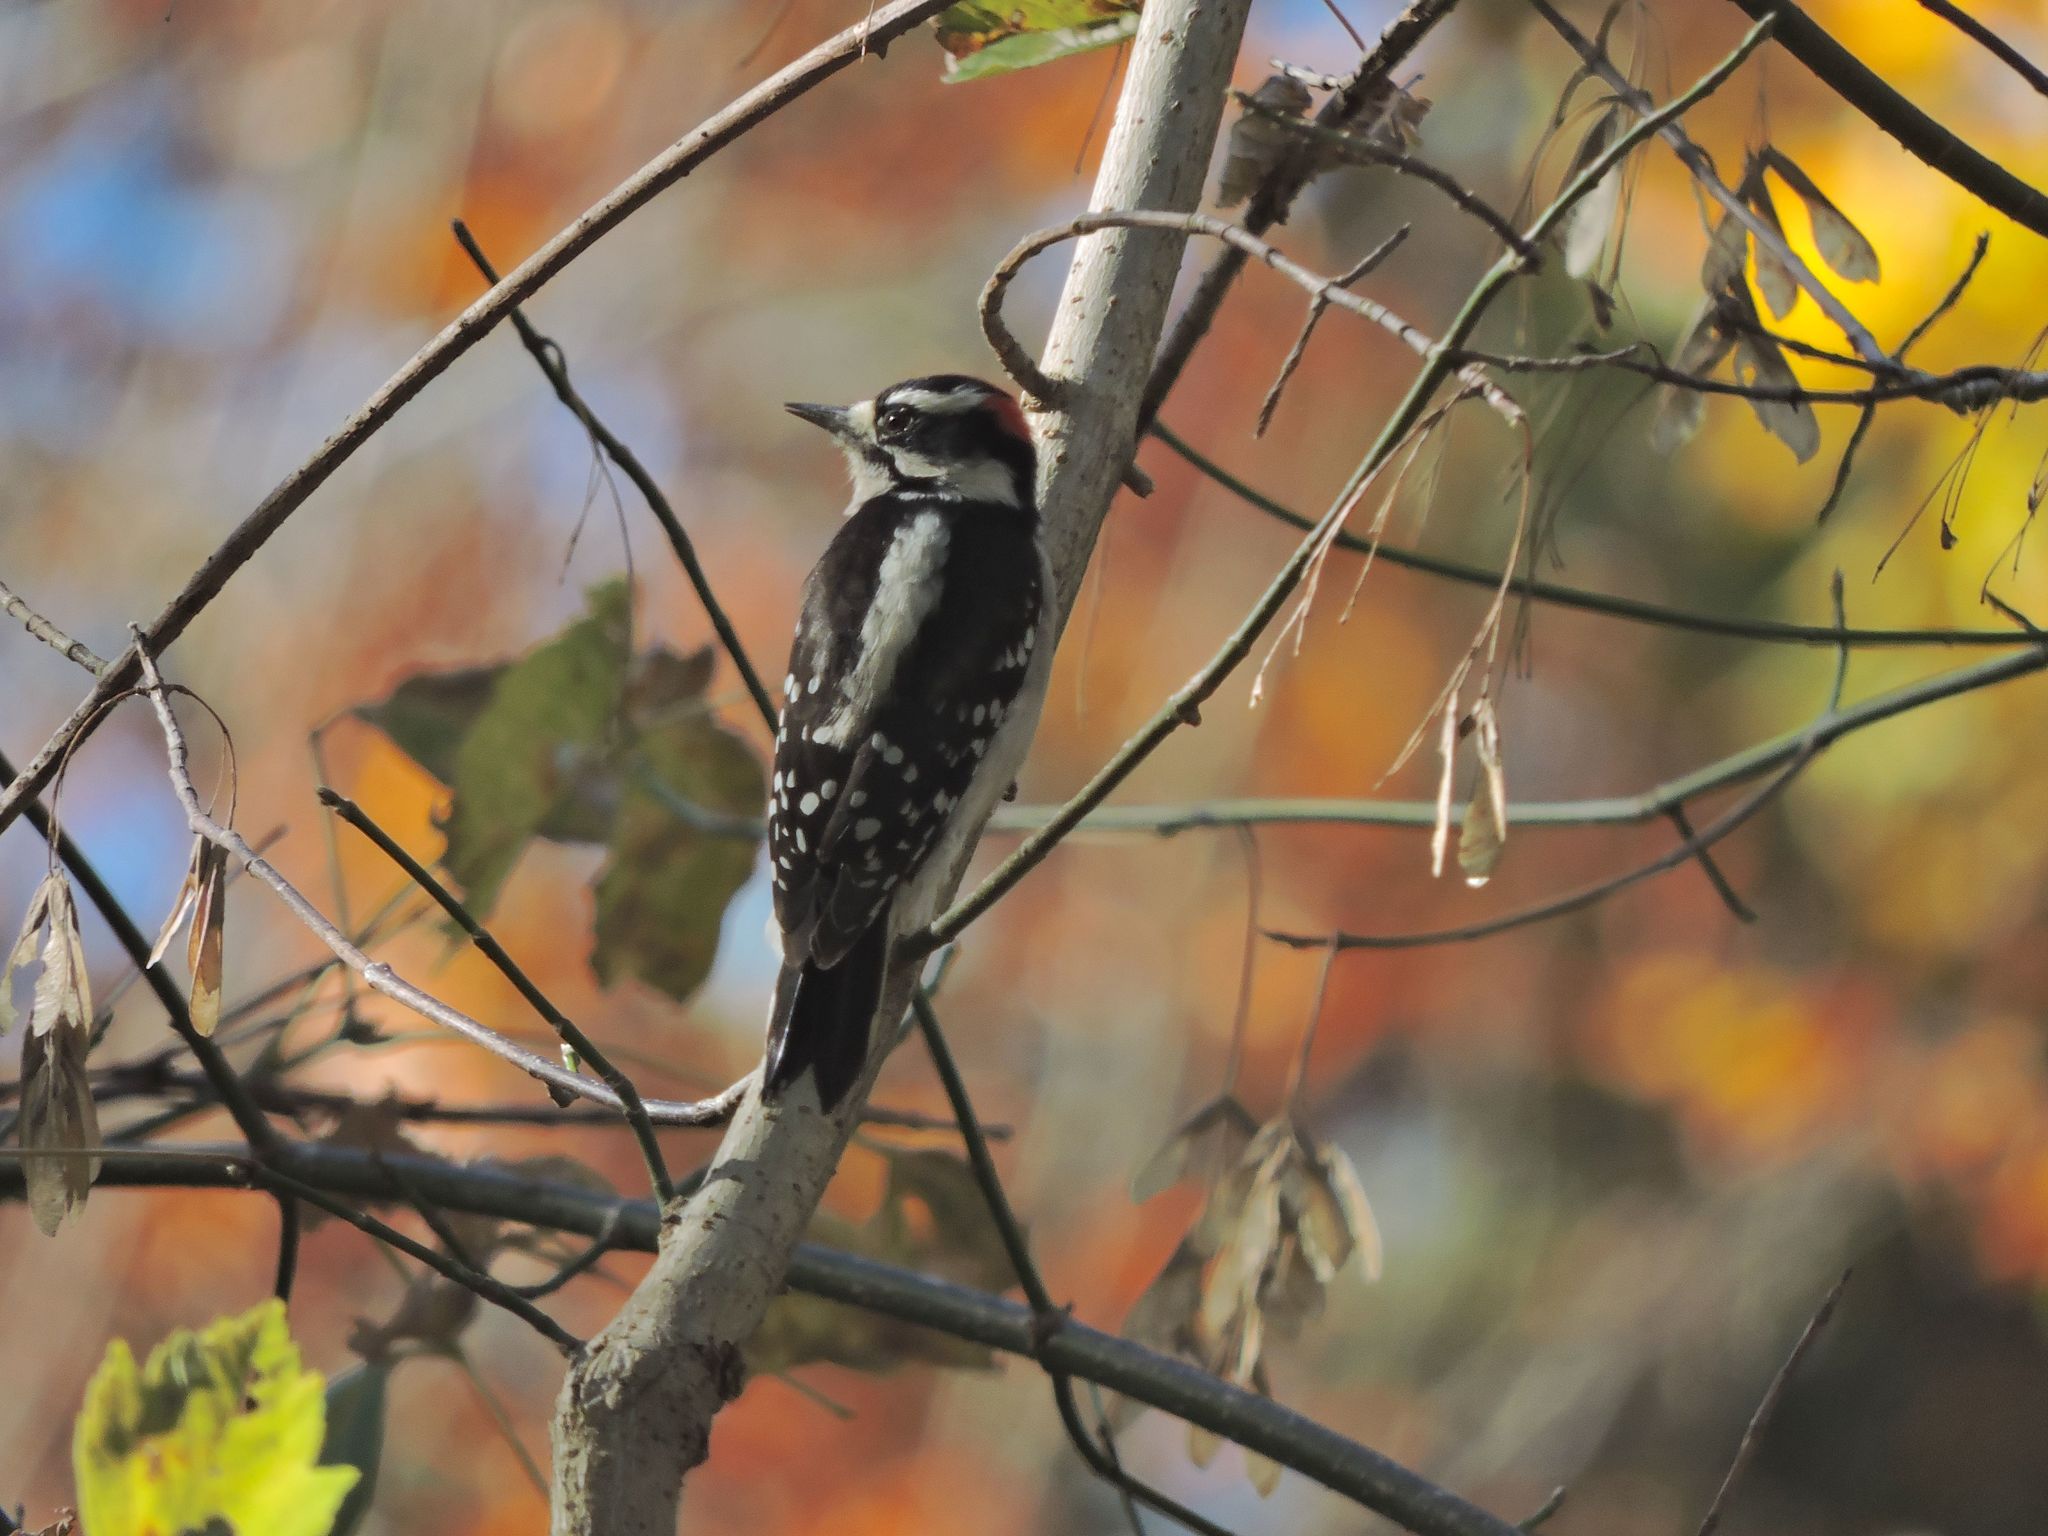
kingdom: Animalia
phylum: Chordata
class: Aves
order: Piciformes
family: Picidae
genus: Dryobates
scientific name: Dryobates pubescens
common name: Downy woodpecker
